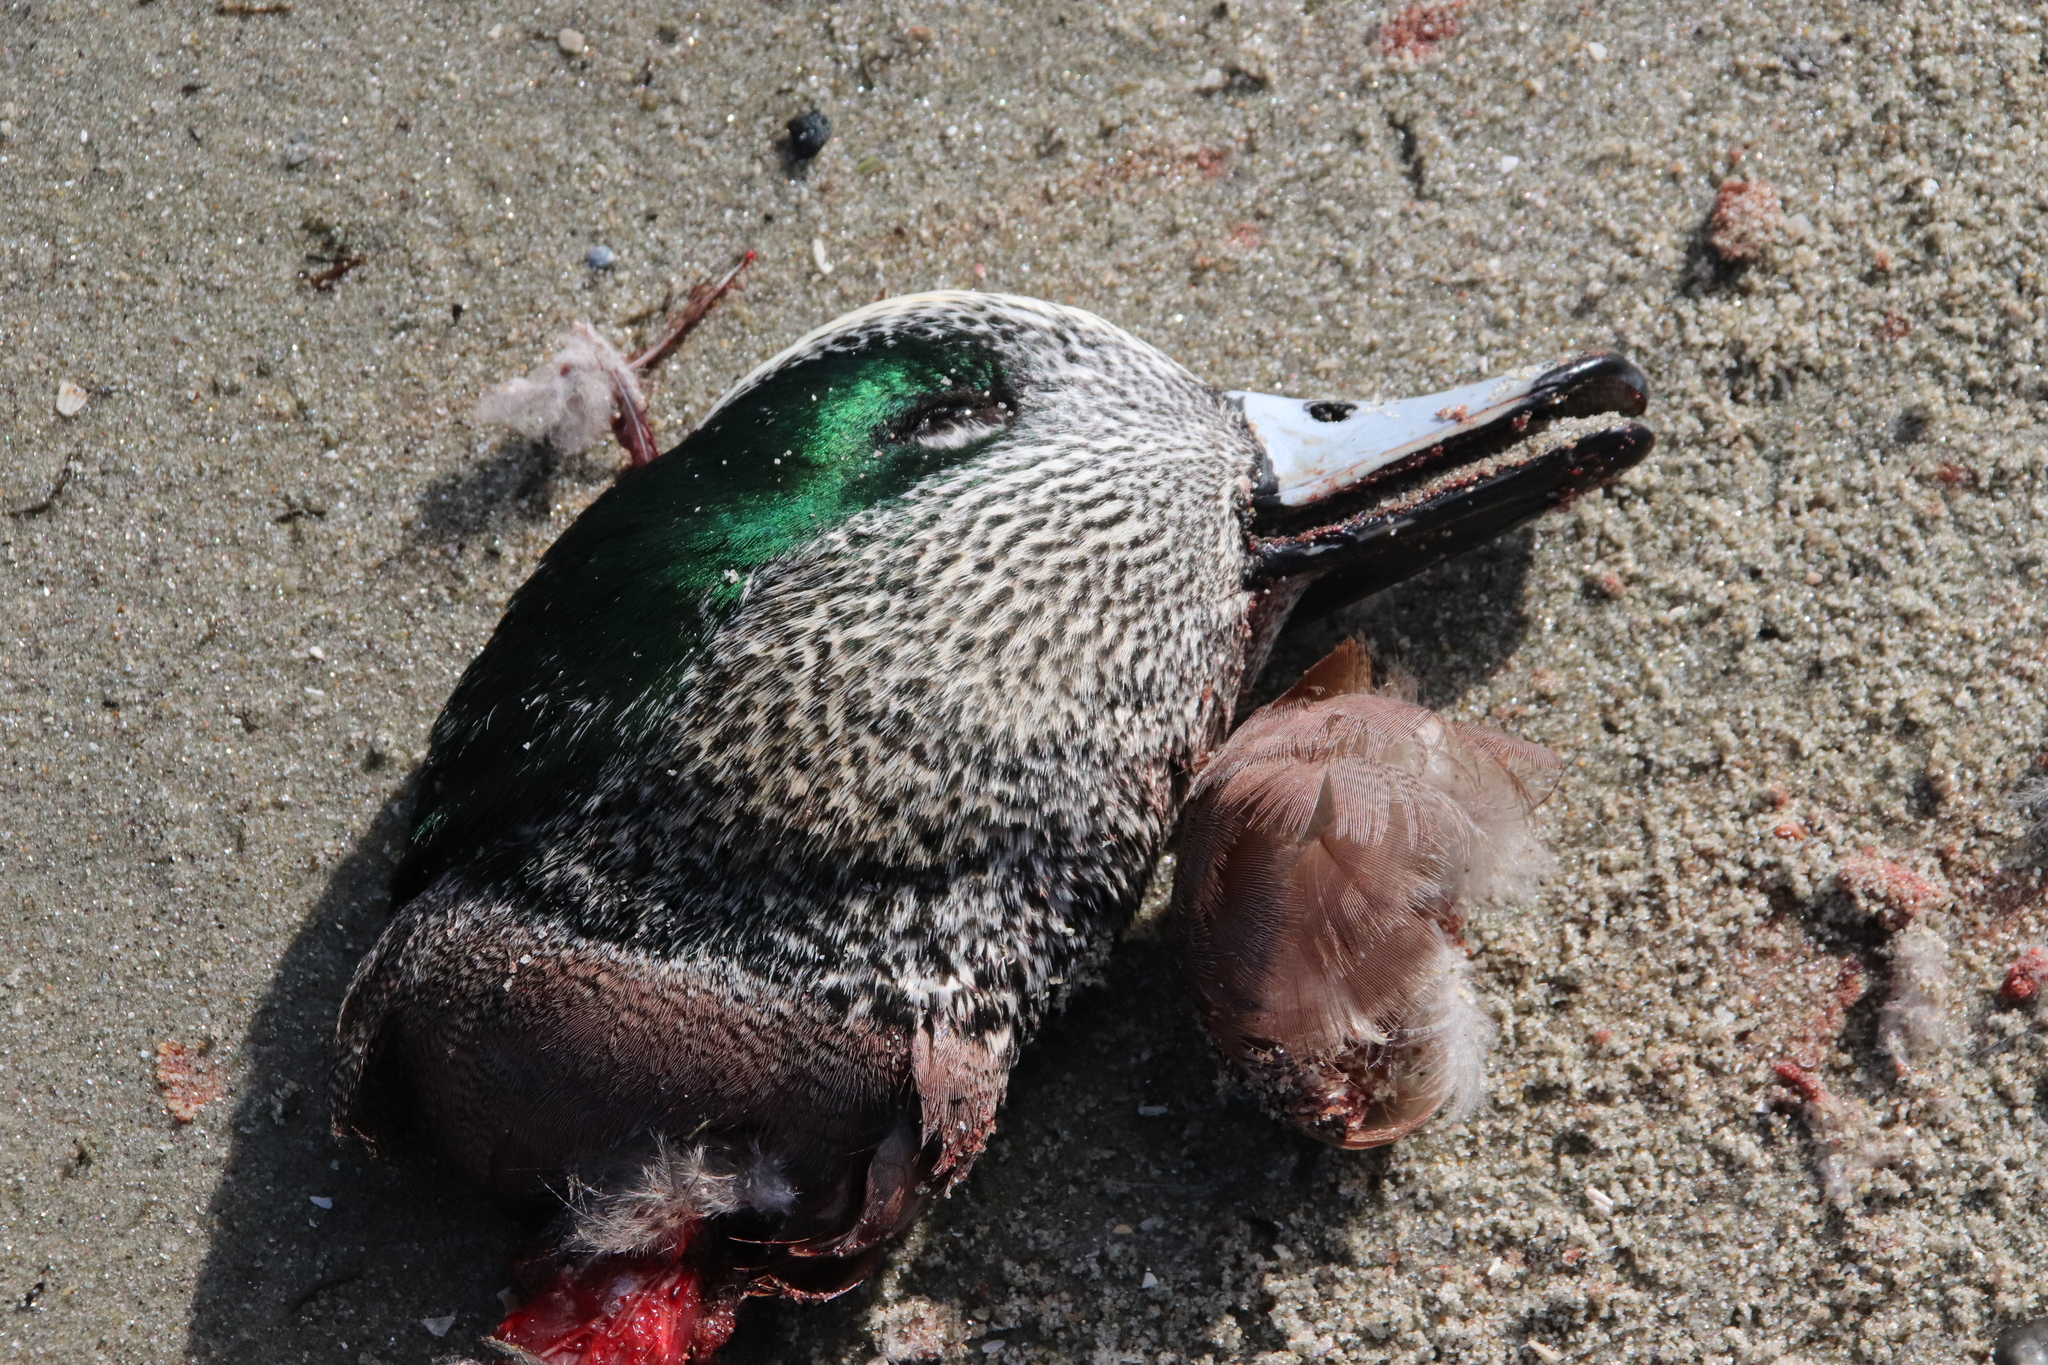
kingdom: Animalia
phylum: Chordata
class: Aves
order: Anseriformes
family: Anatidae
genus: Mareca
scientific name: Mareca americana
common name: American wigeon
